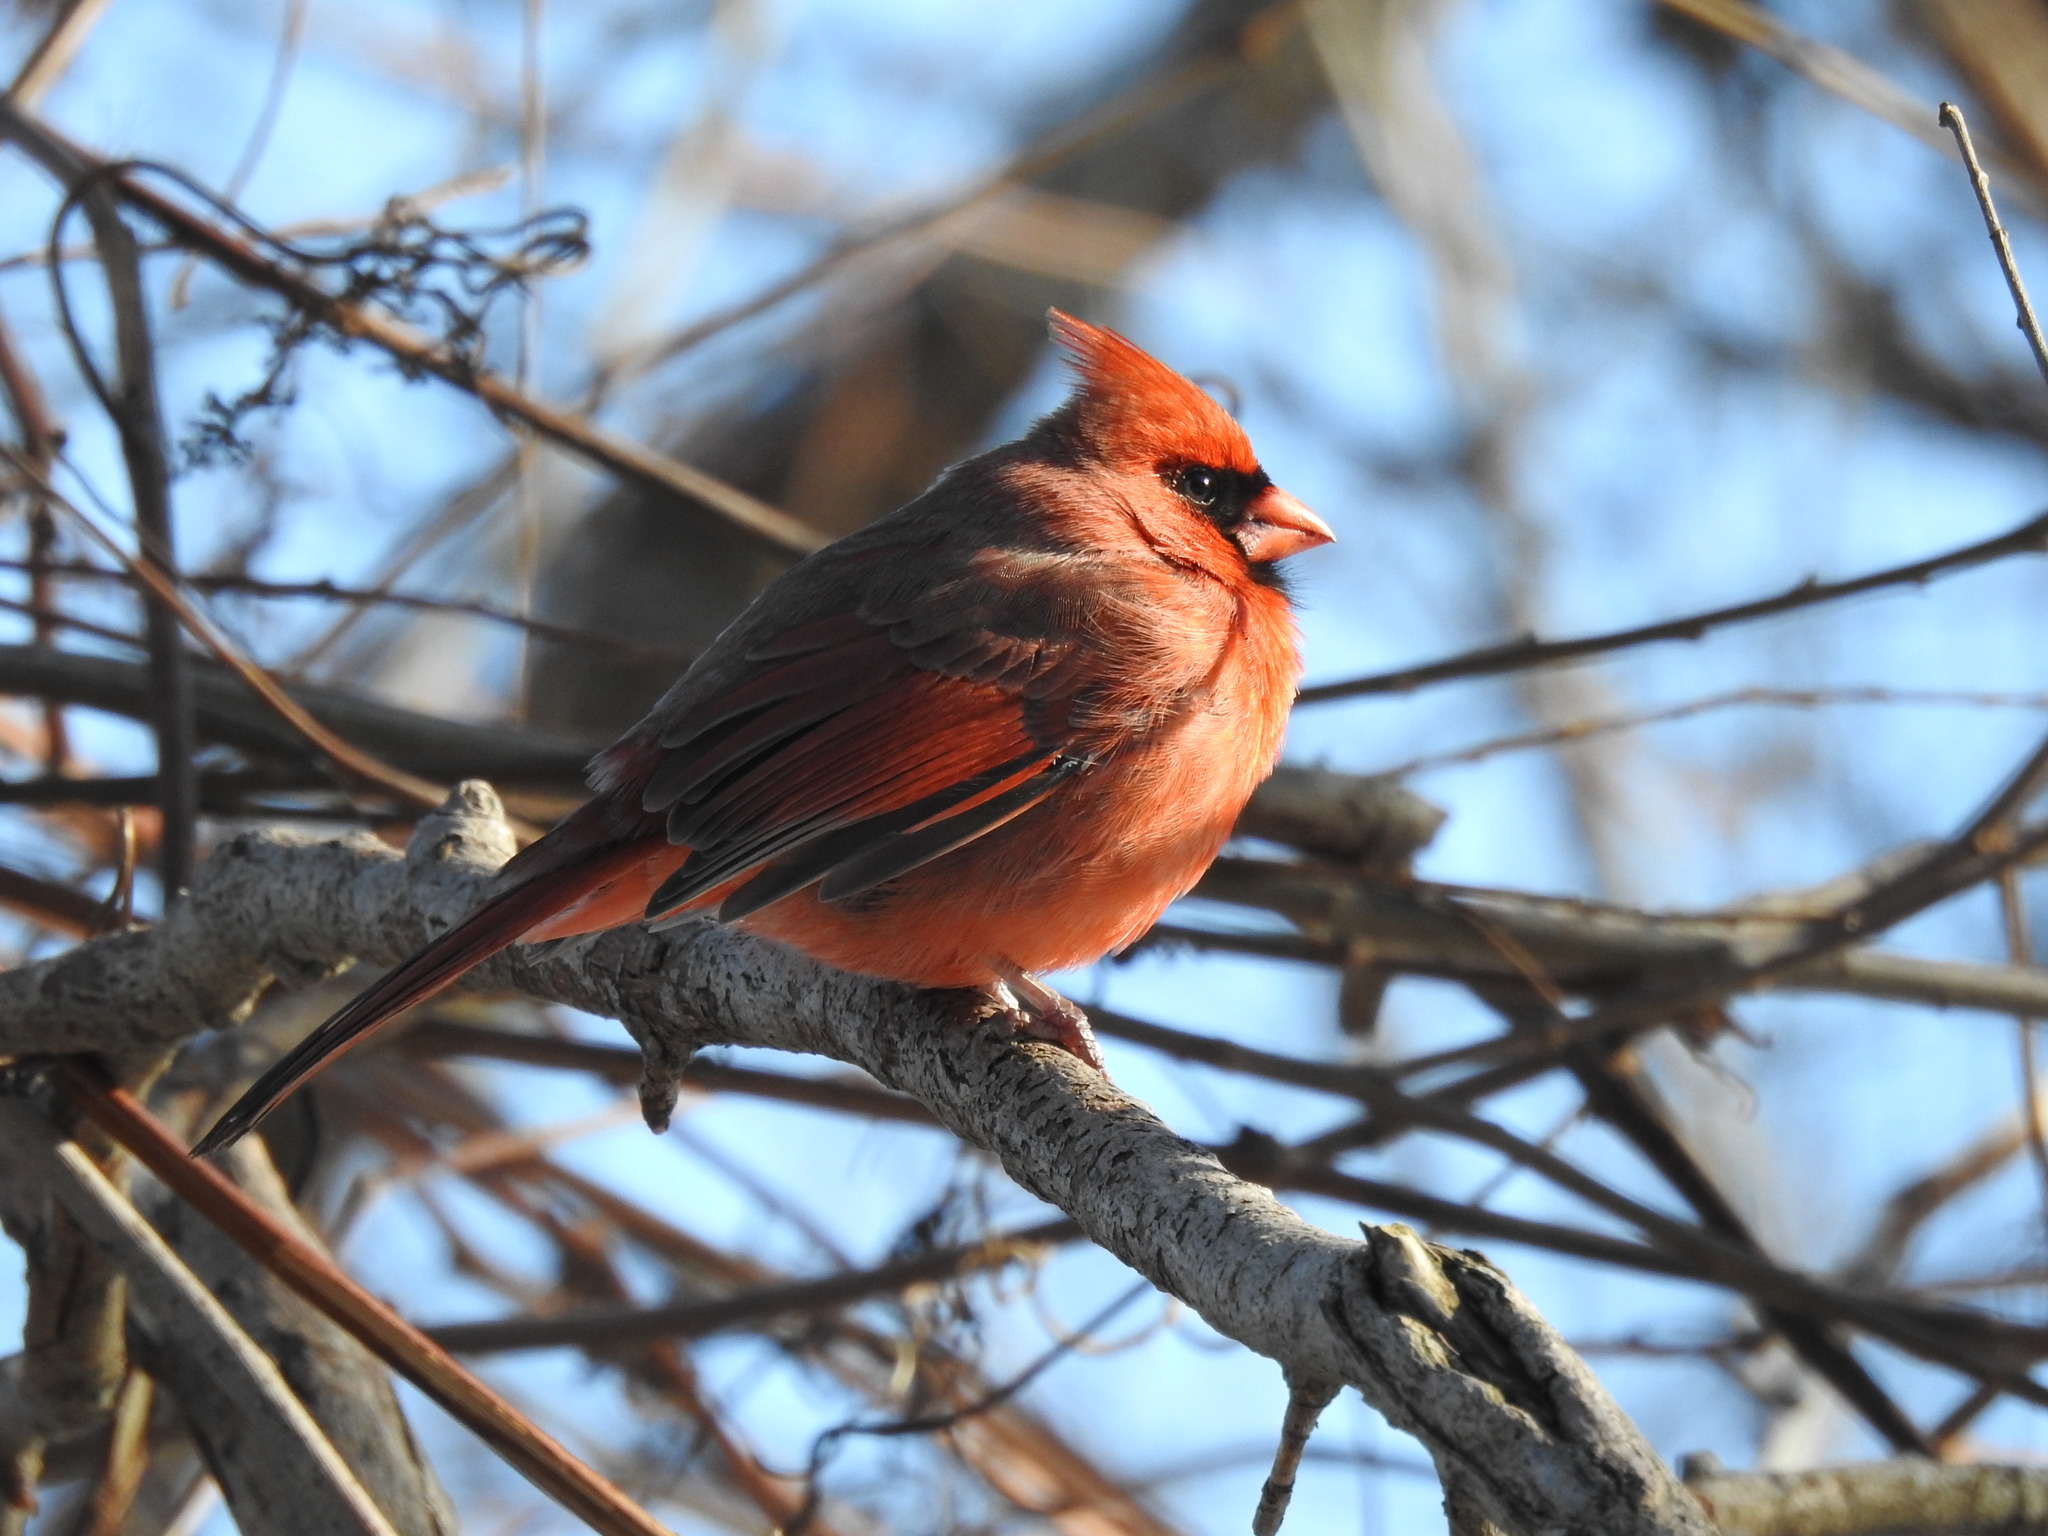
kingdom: Animalia
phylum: Chordata
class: Aves
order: Passeriformes
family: Cardinalidae
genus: Cardinalis
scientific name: Cardinalis cardinalis
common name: Northern cardinal
